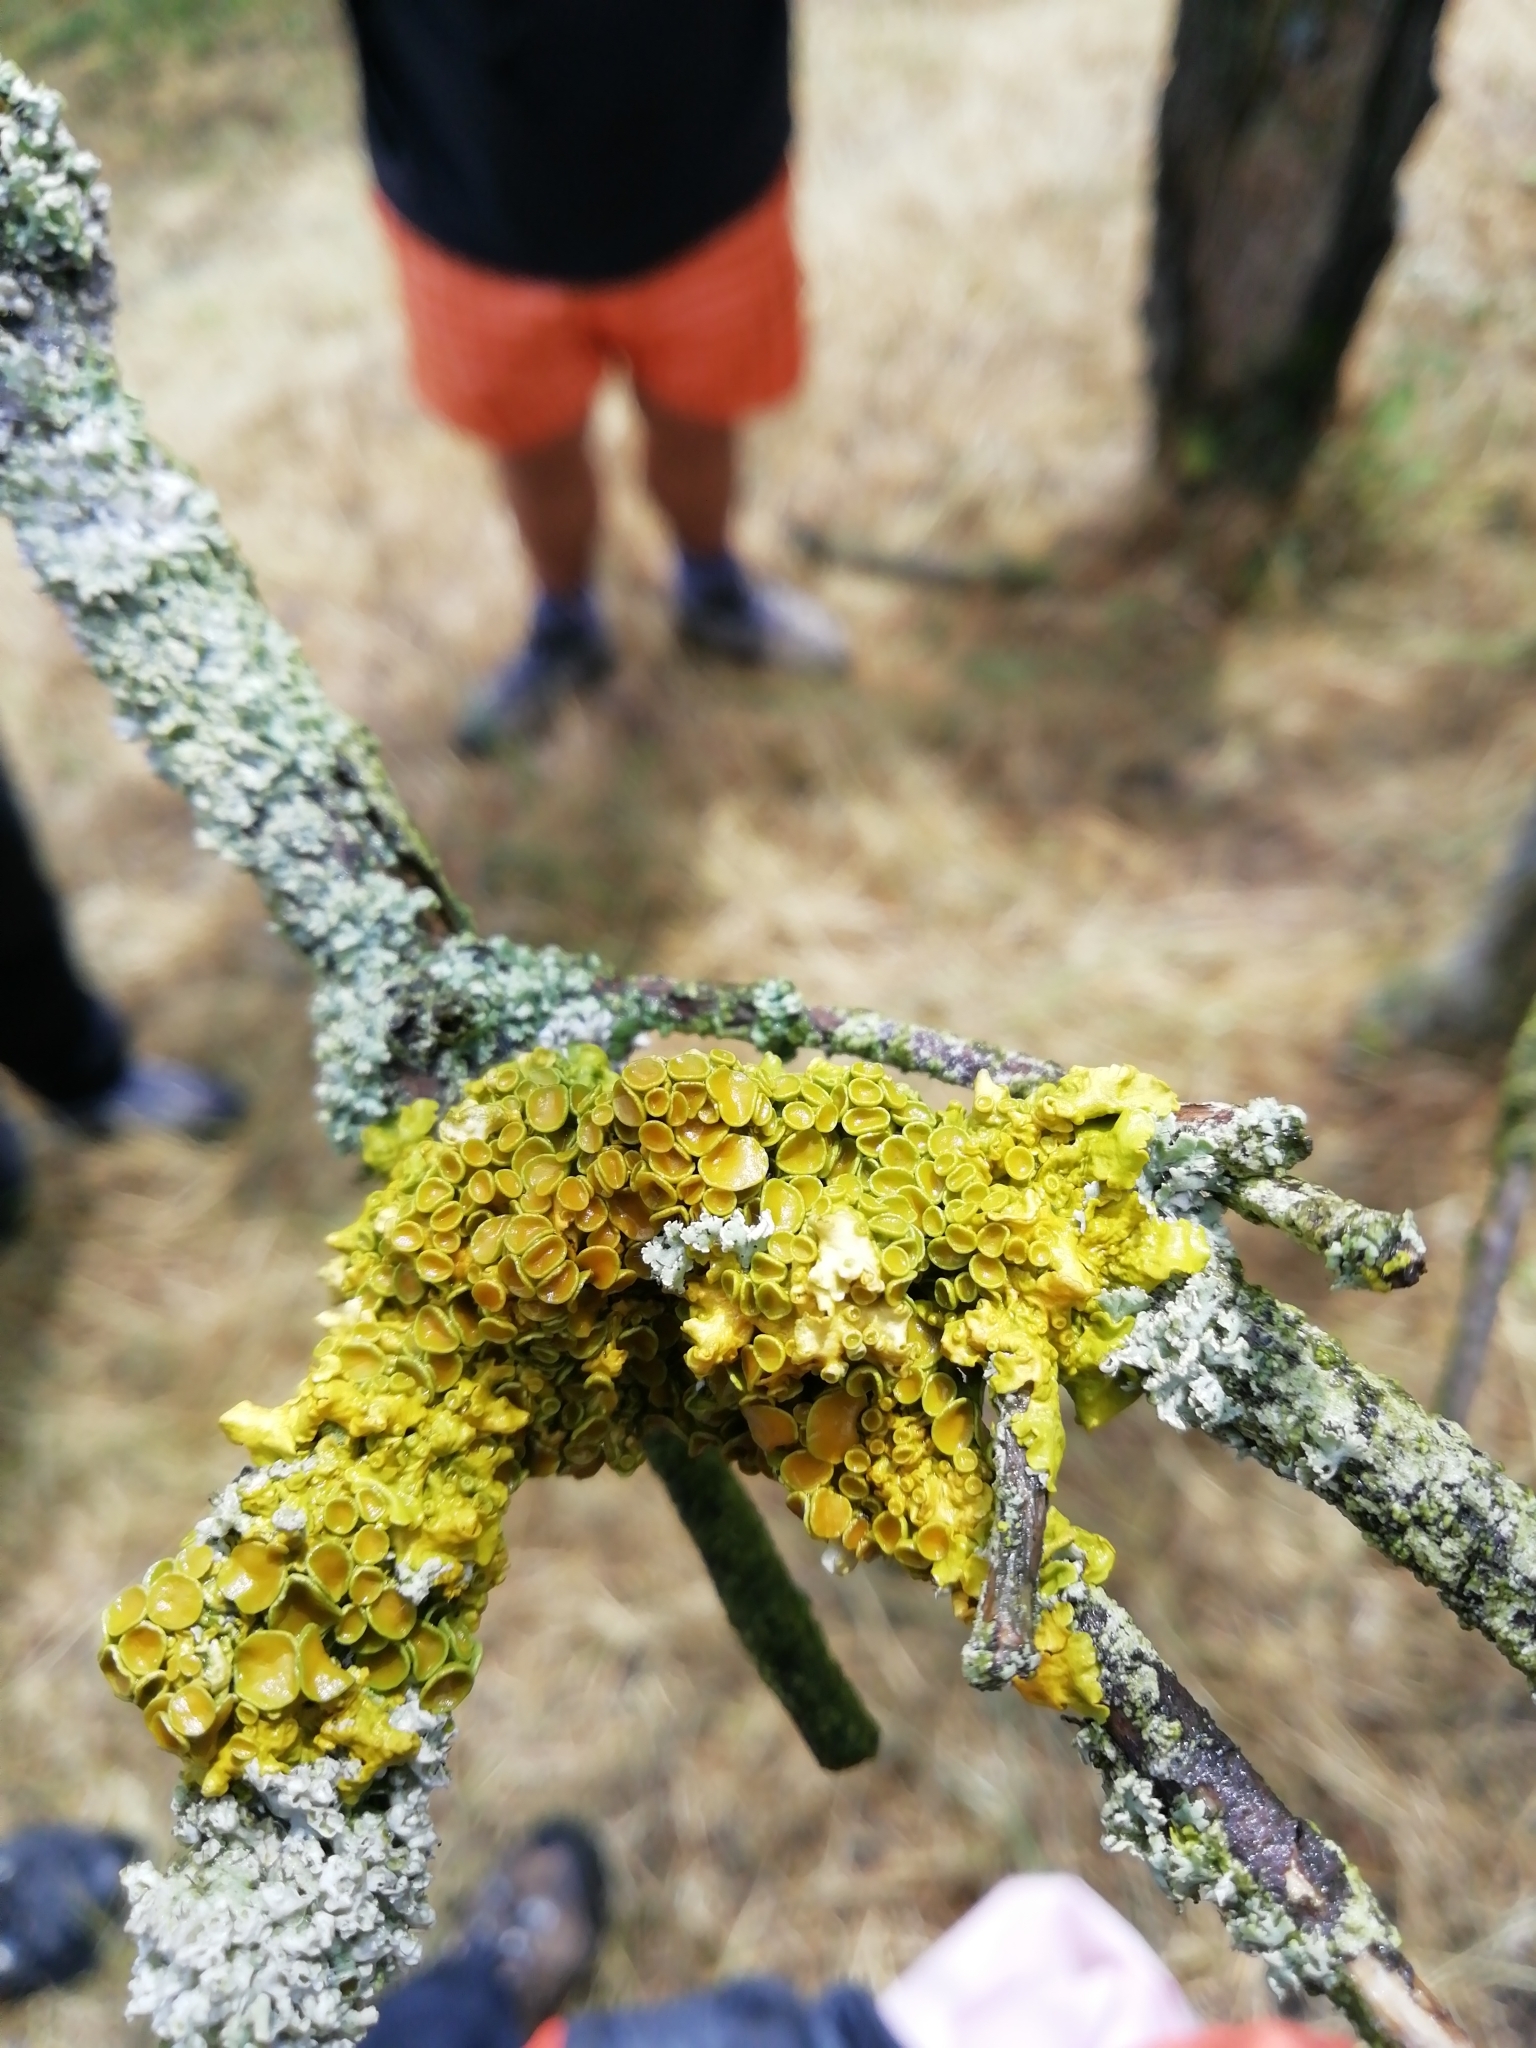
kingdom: Fungi
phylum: Ascomycota
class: Lecanoromycetes
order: Teloschistales
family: Teloschistaceae
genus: Xanthoria
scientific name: Xanthoria parietina
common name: Common orange lichen
